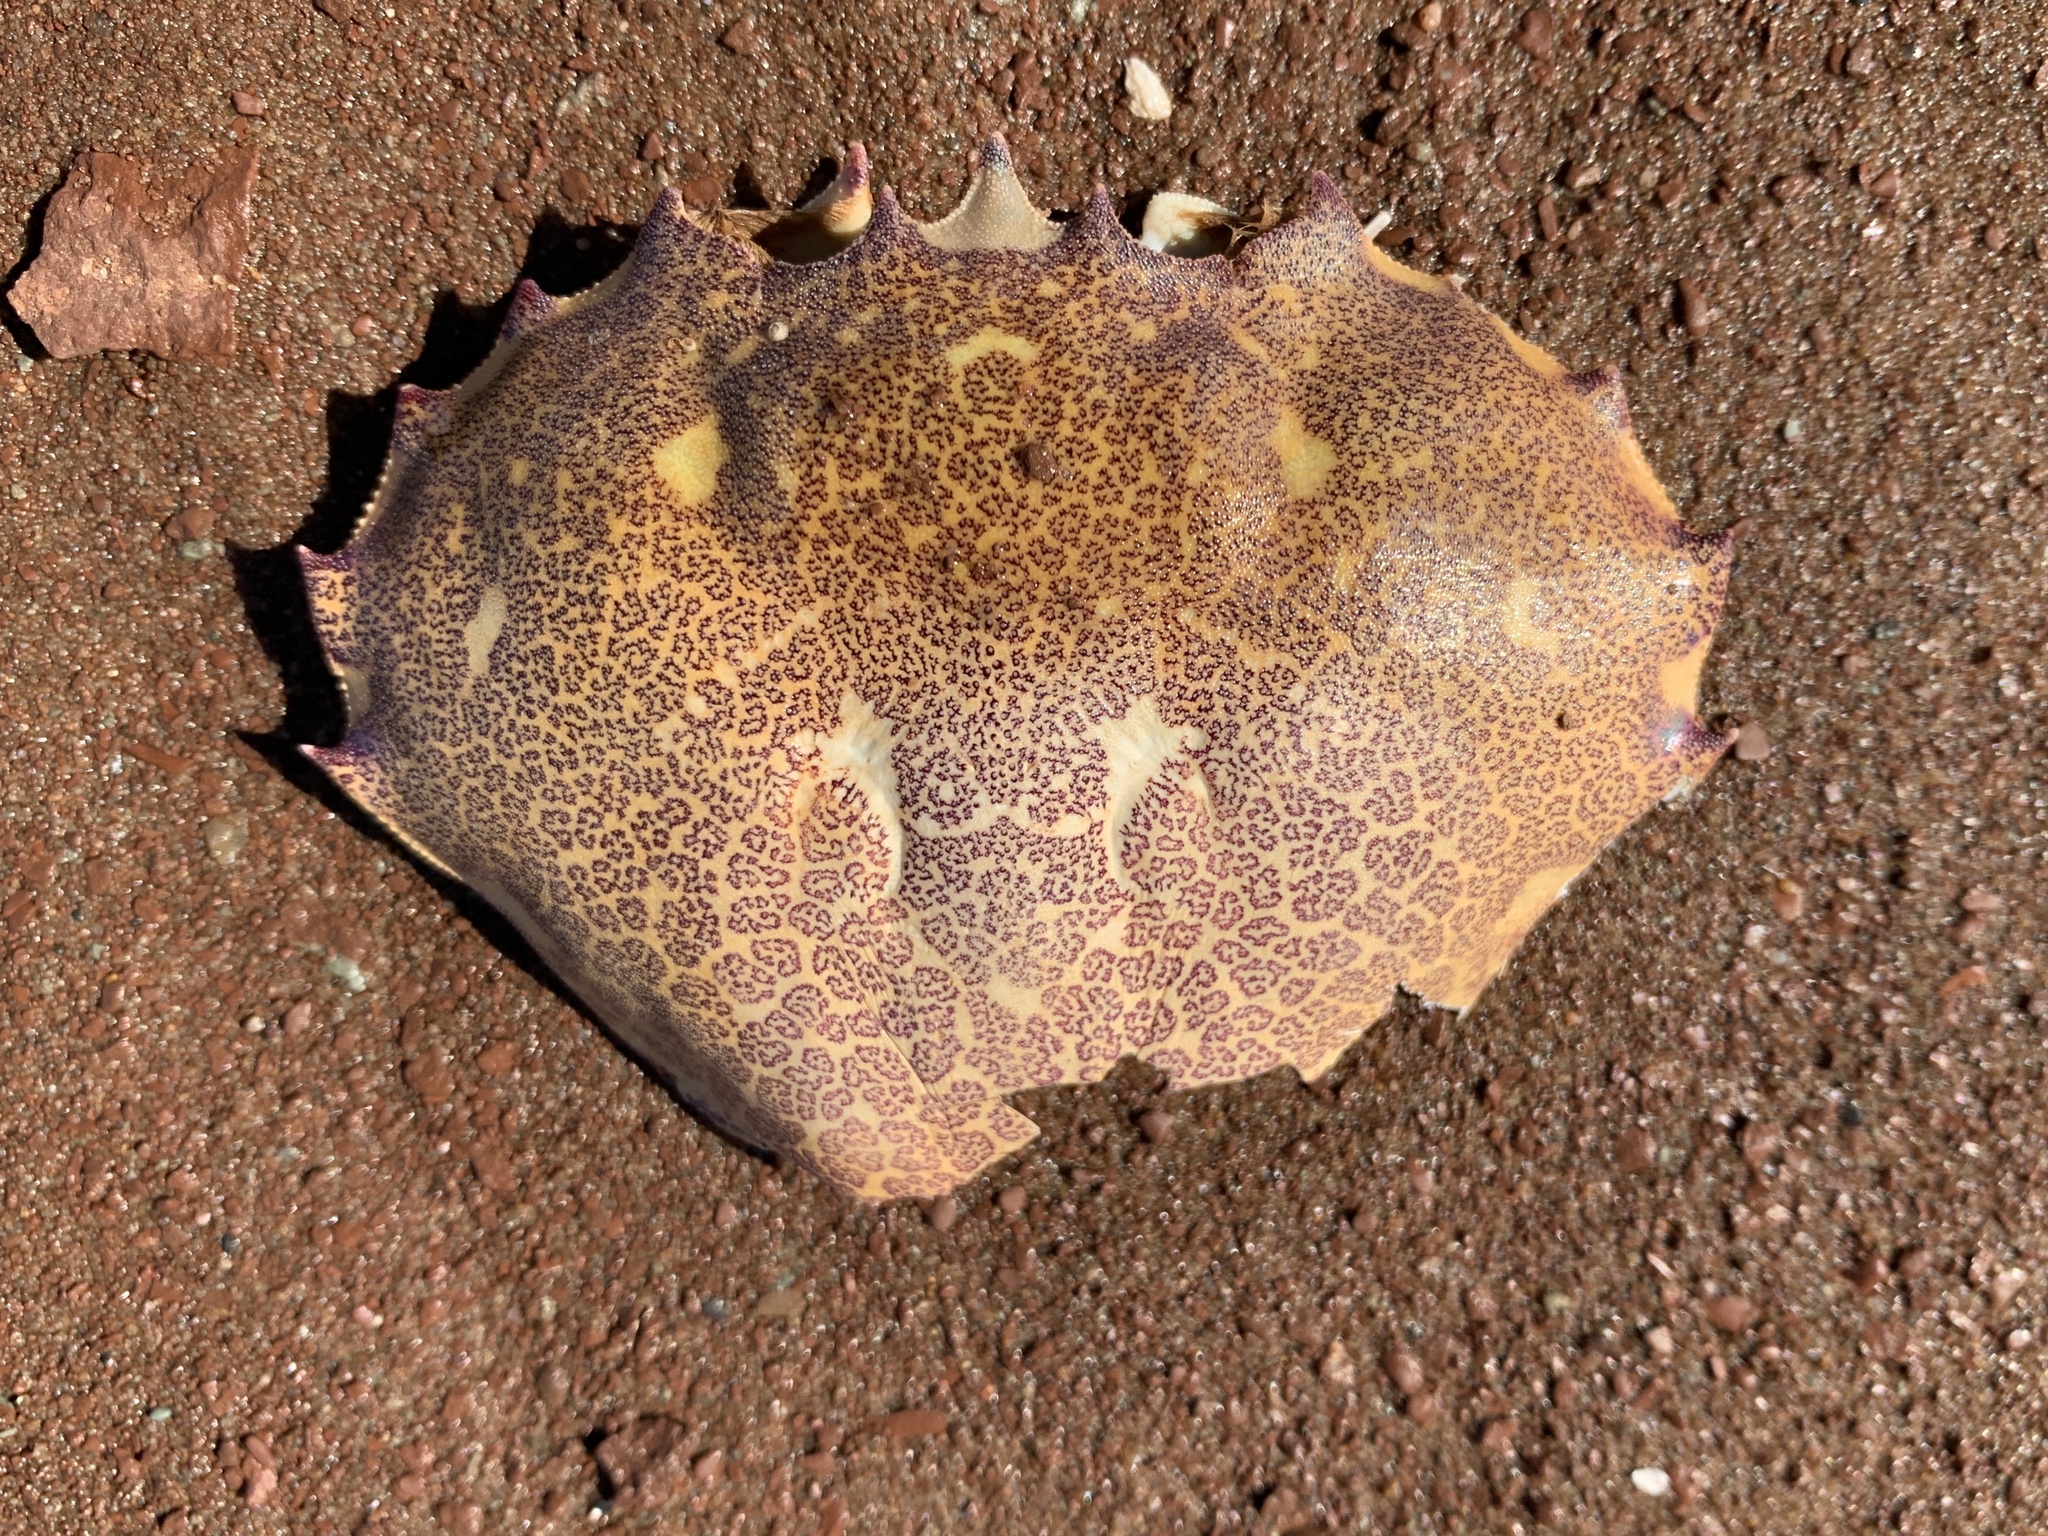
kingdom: Animalia
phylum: Arthropoda
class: Malacostraca
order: Decapoda
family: Ovalipidae
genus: Ovalipes
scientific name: Ovalipes ocellatus
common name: Lady crab
